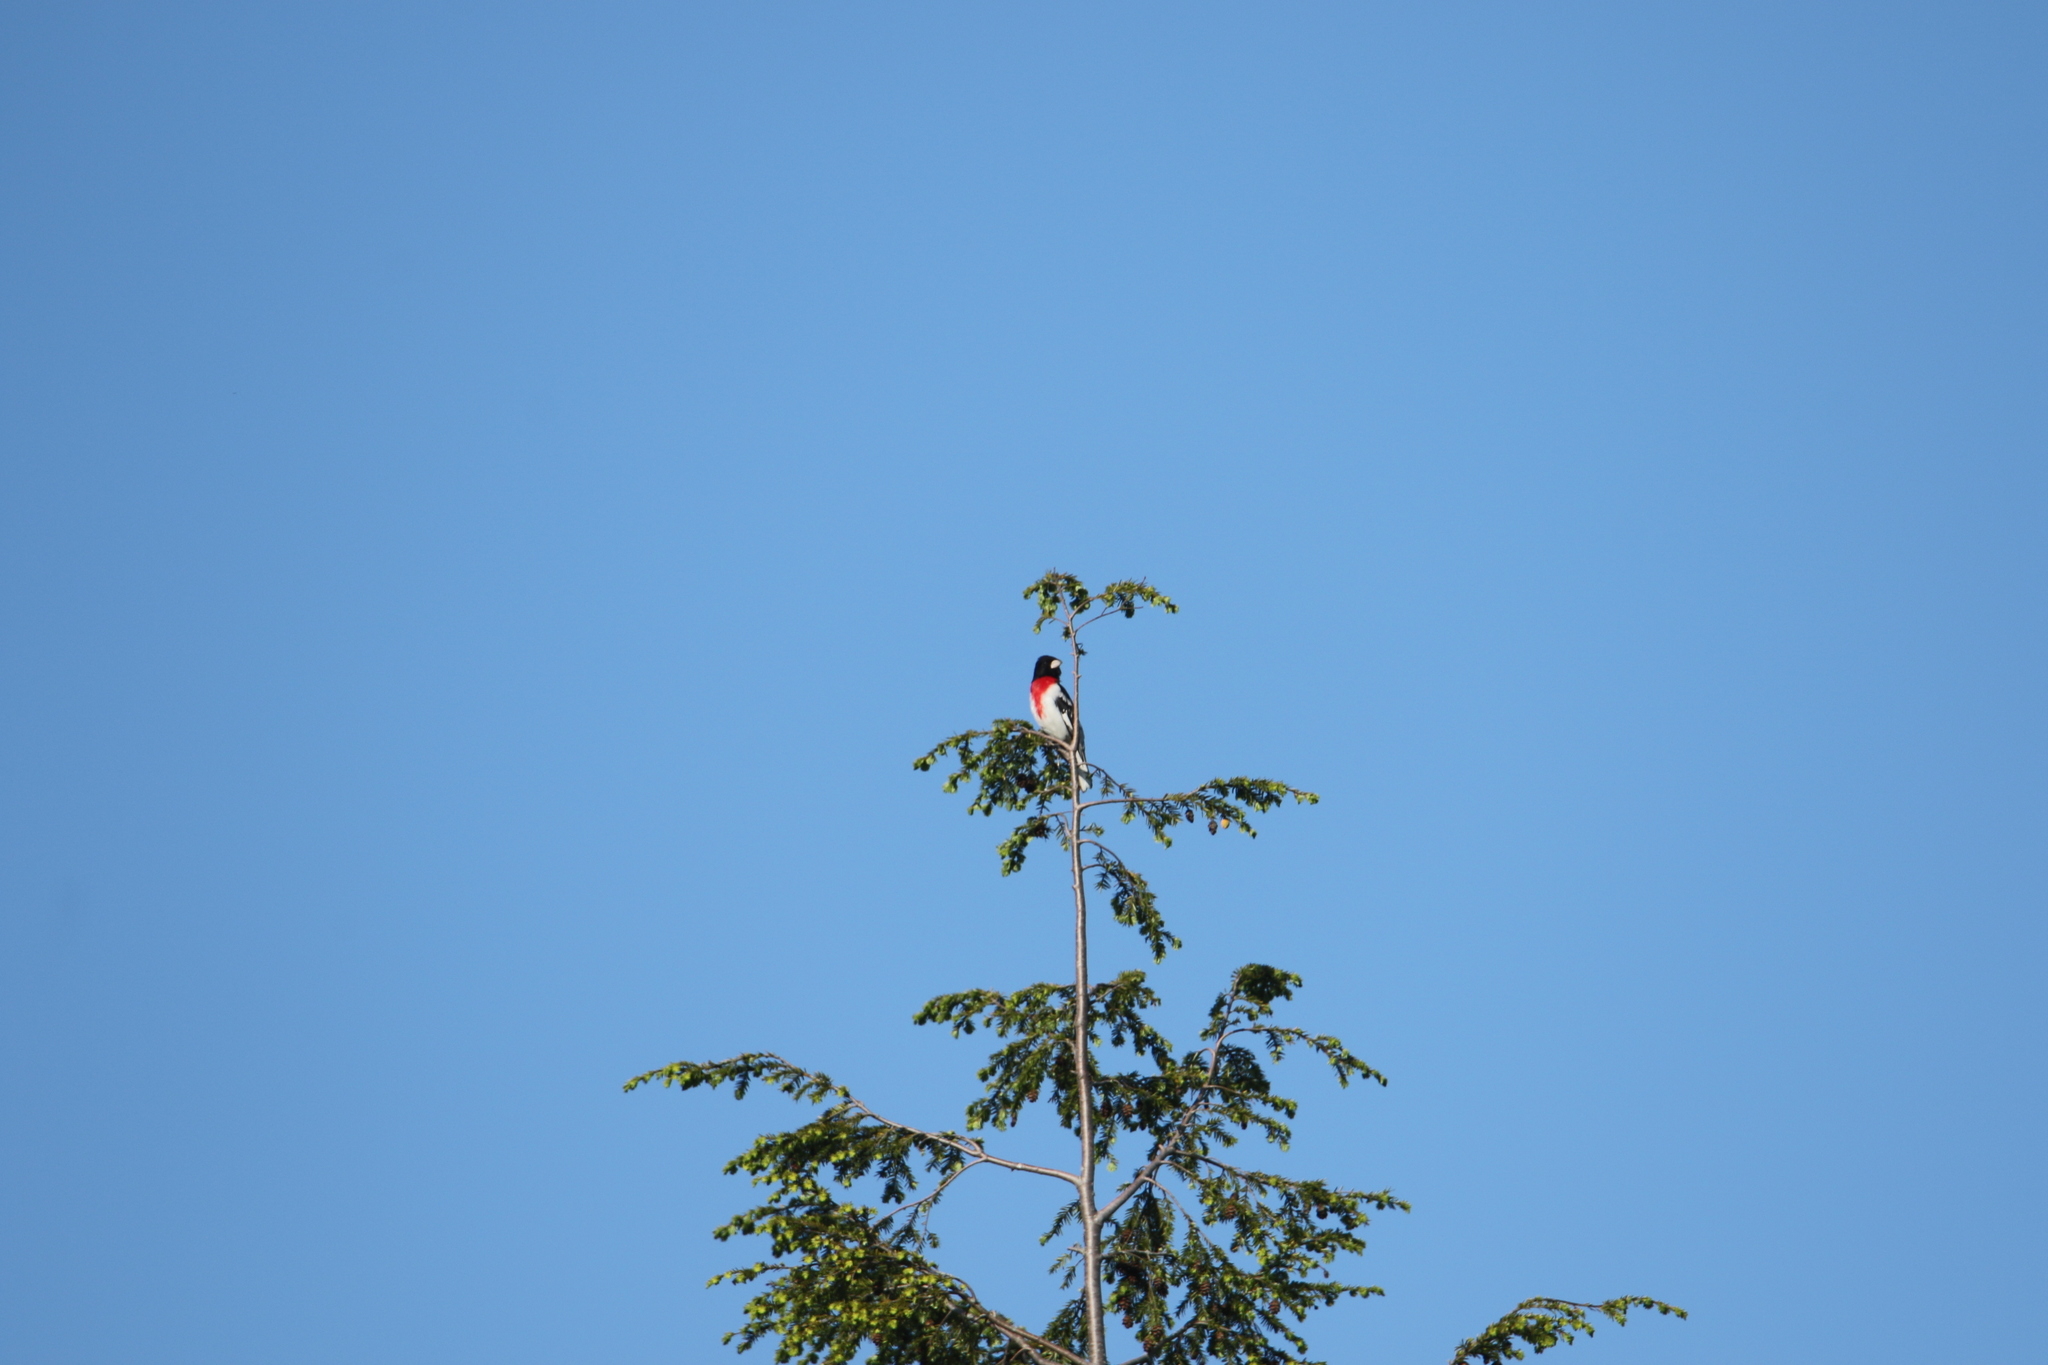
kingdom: Animalia
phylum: Chordata
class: Aves
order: Passeriformes
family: Cardinalidae
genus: Pheucticus
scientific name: Pheucticus ludovicianus
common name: Rose-breasted grosbeak
